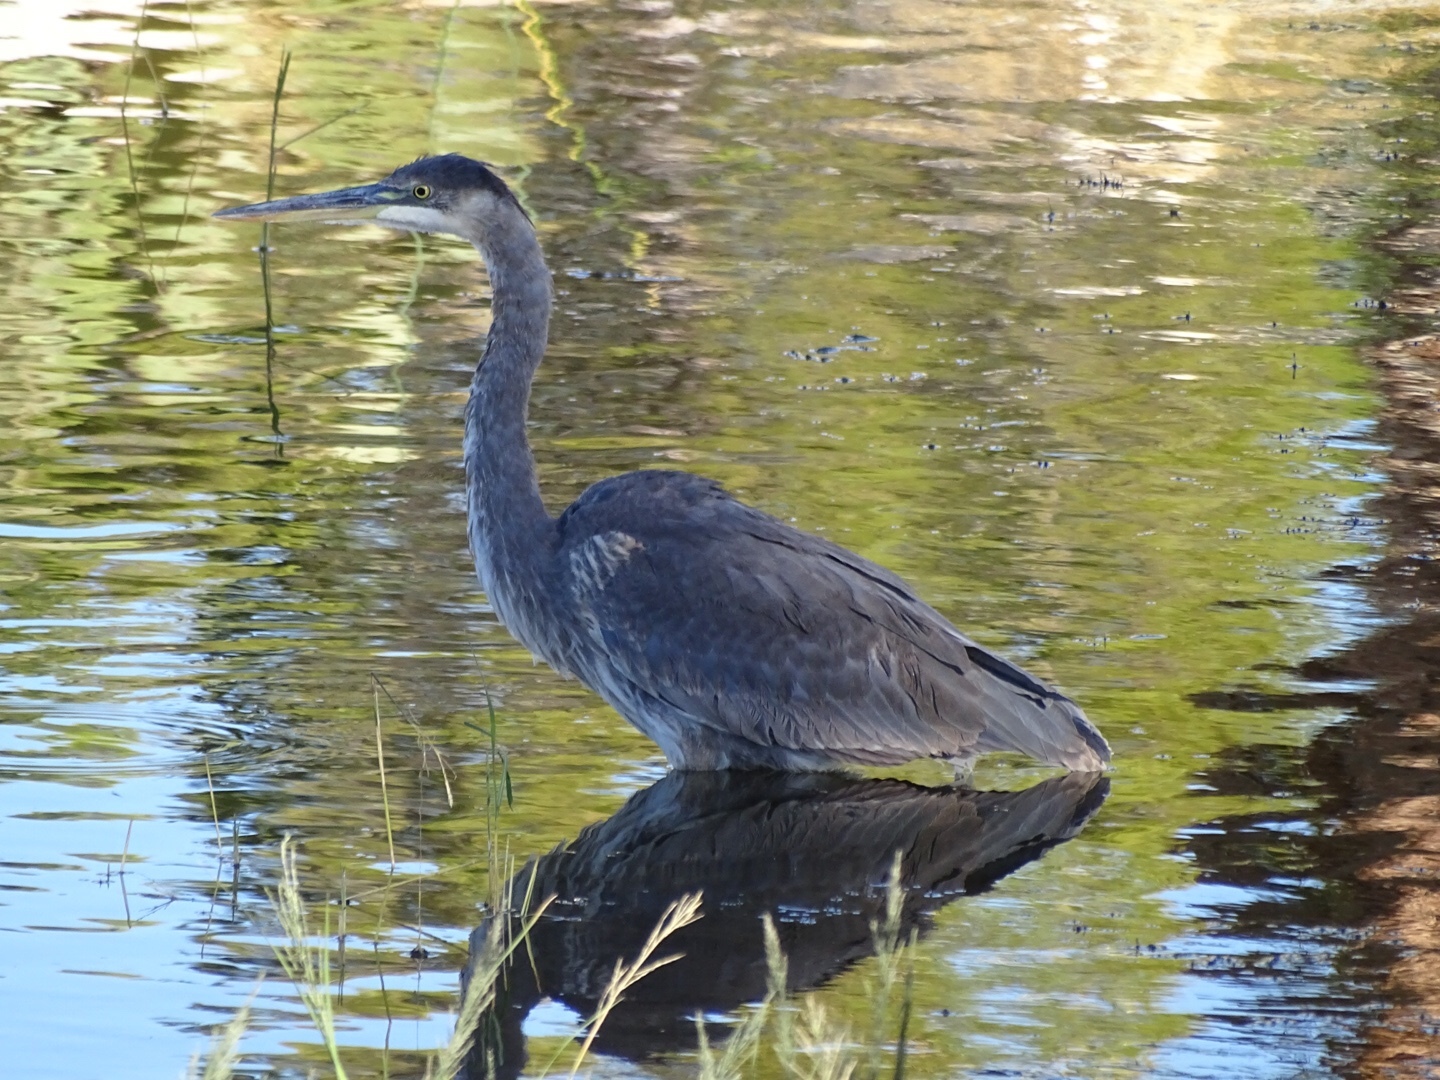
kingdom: Animalia
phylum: Chordata
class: Aves
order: Pelecaniformes
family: Ardeidae
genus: Ardea
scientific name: Ardea herodias
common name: Great blue heron
